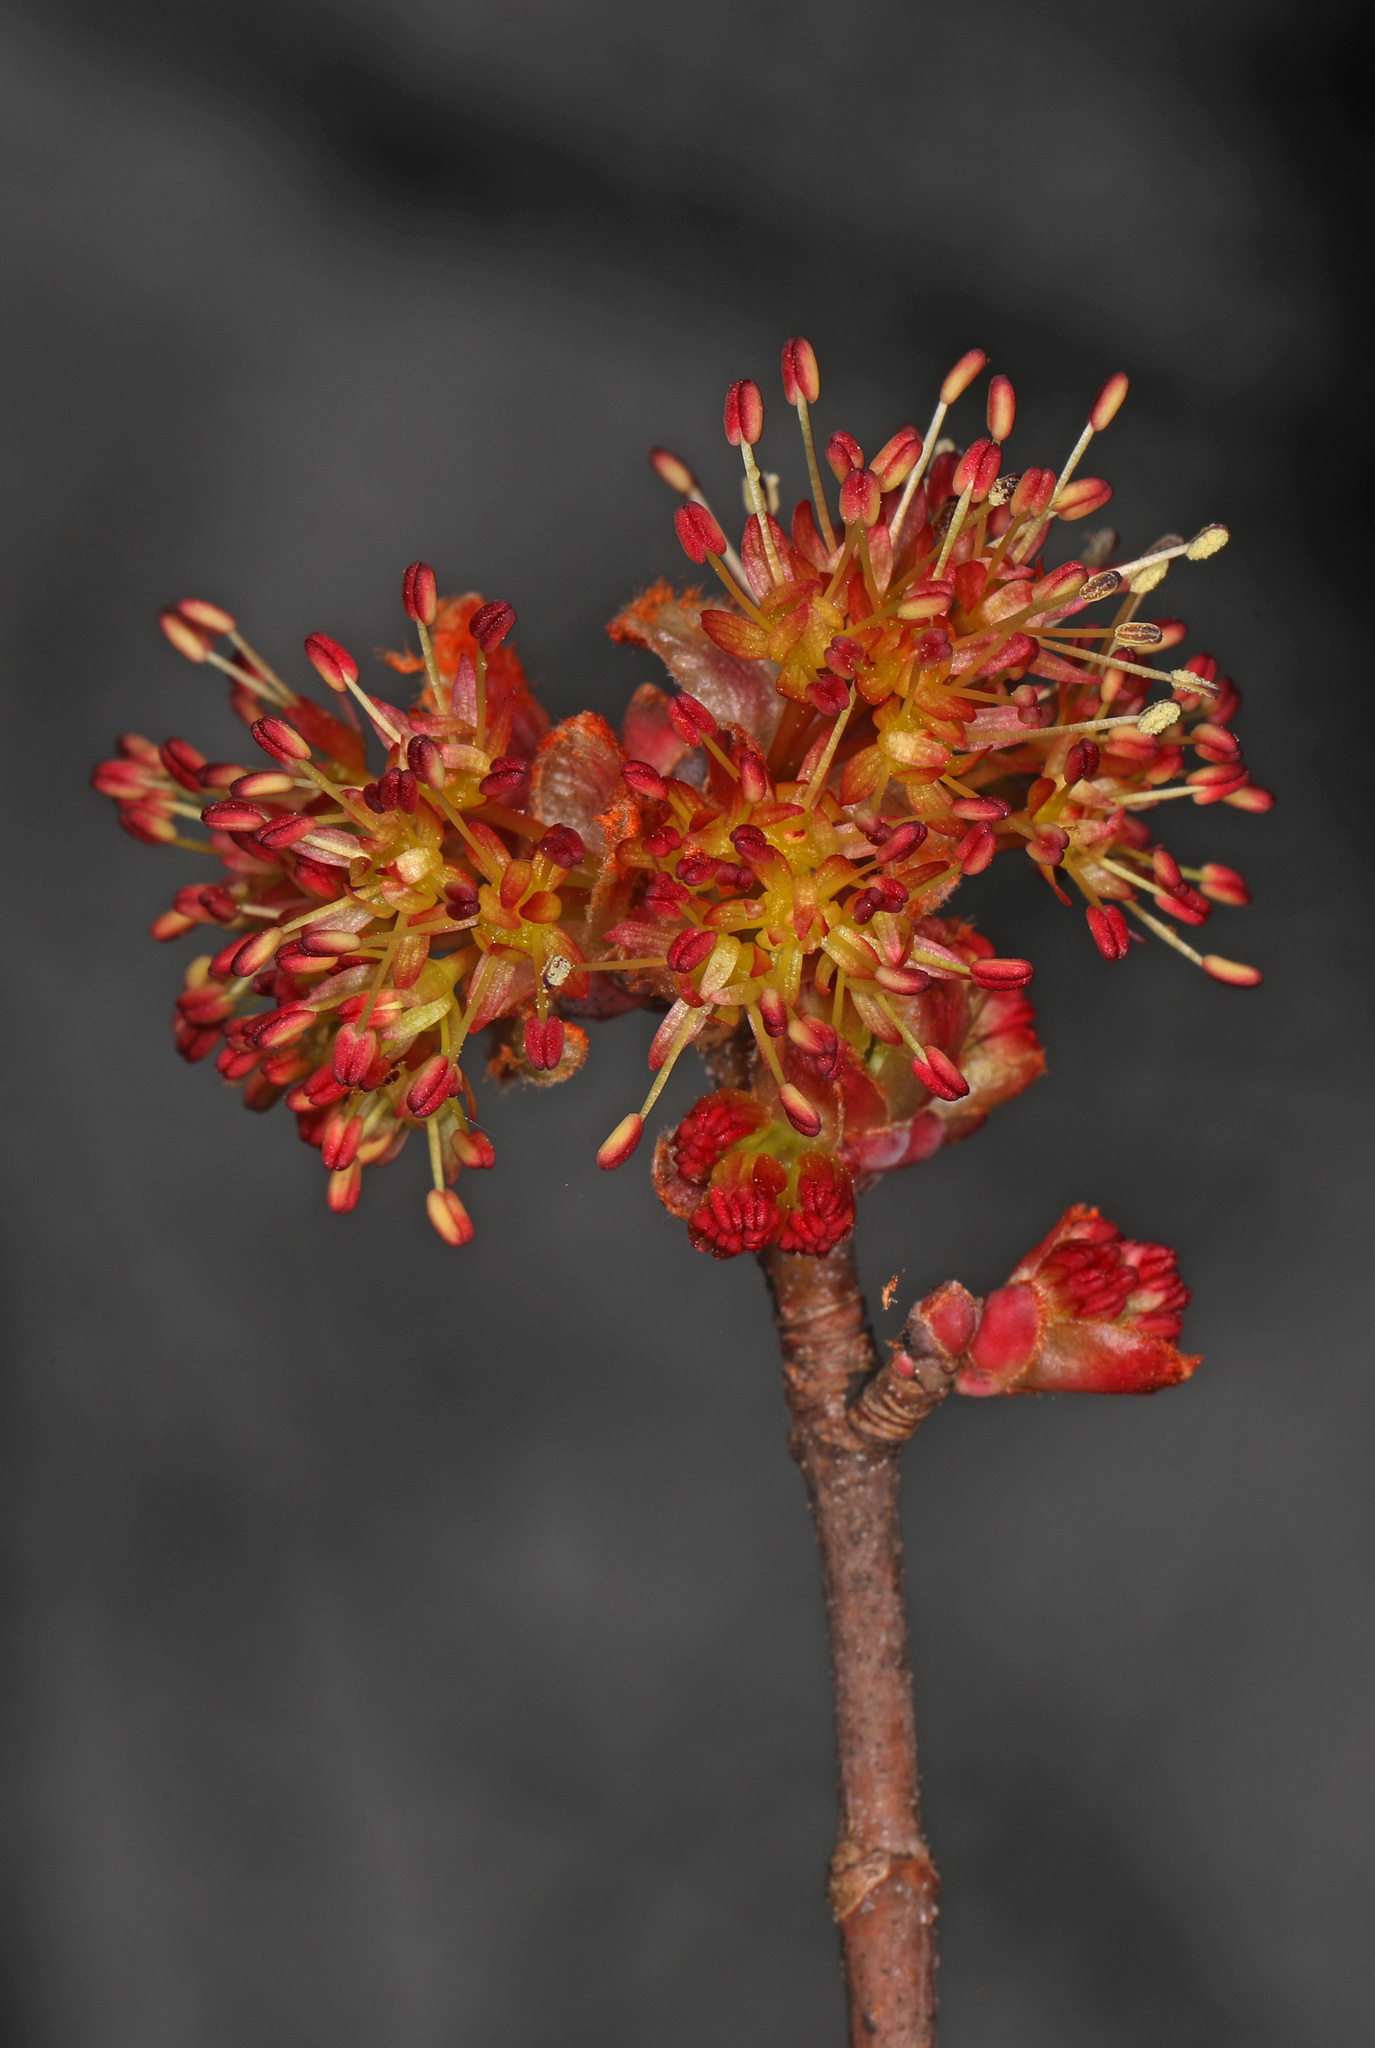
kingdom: Plantae
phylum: Tracheophyta
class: Magnoliopsida
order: Sapindales
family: Sapindaceae
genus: Acer
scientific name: Acer rubrum
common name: Red maple
